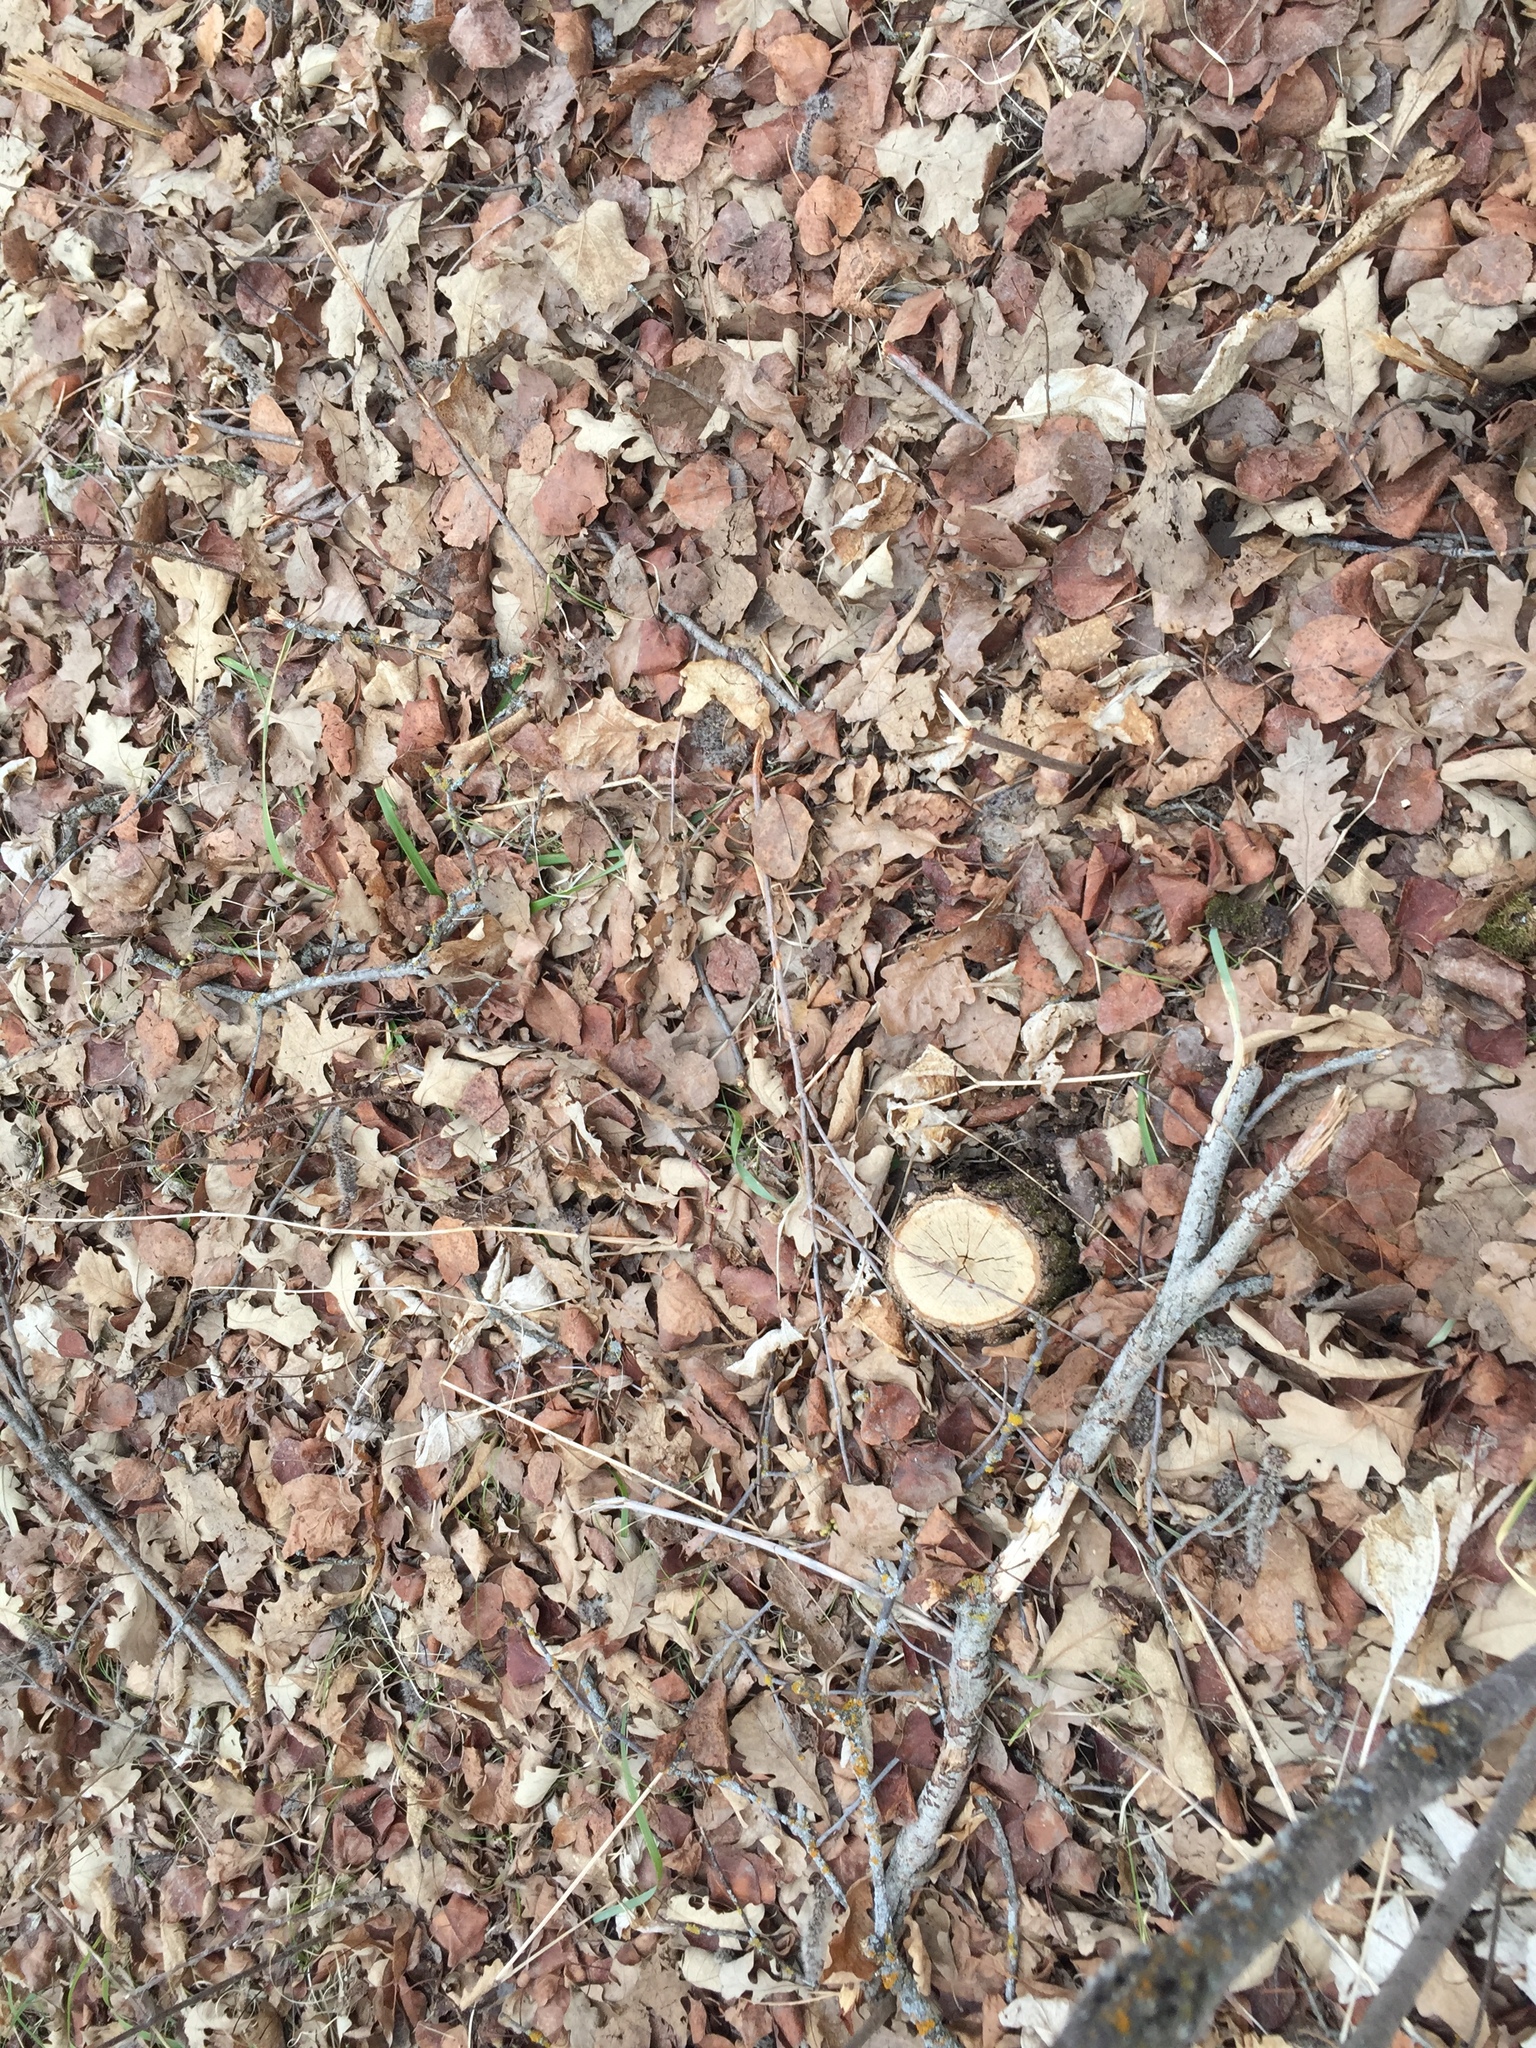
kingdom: Plantae
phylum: Tracheophyta
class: Magnoliopsida
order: Fagales
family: Fagaceae
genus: Quercus
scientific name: Quercus macrocarpa
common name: Bur oak
